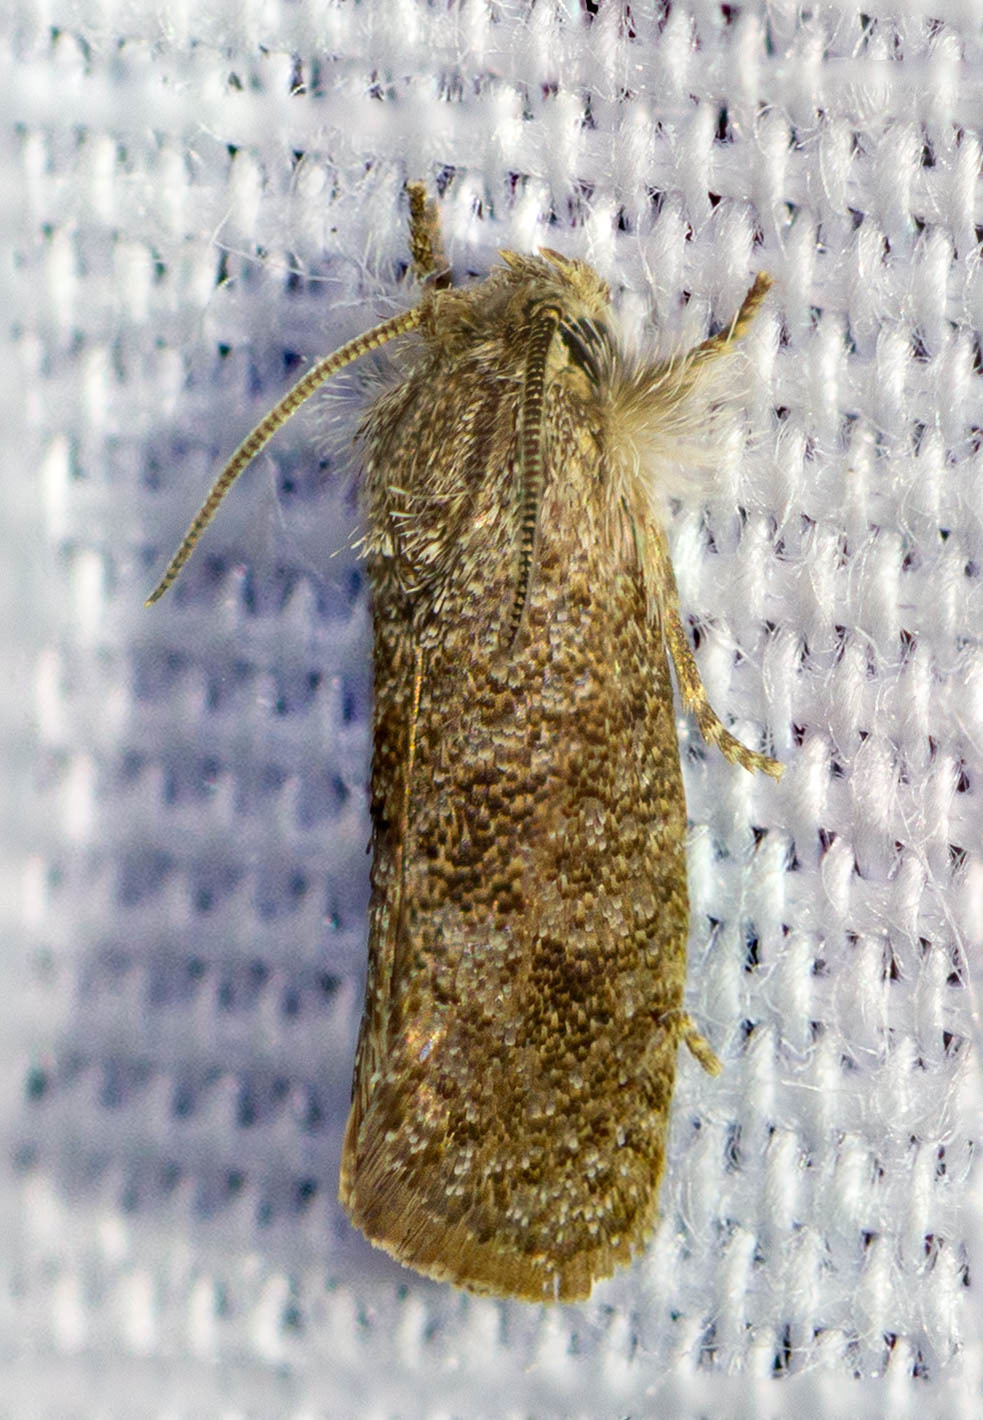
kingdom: Animalia
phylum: Arthropoda
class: Insecta
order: Lepidoptera
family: Tineidae
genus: Acrolophus
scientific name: Acrolophus heppneri
